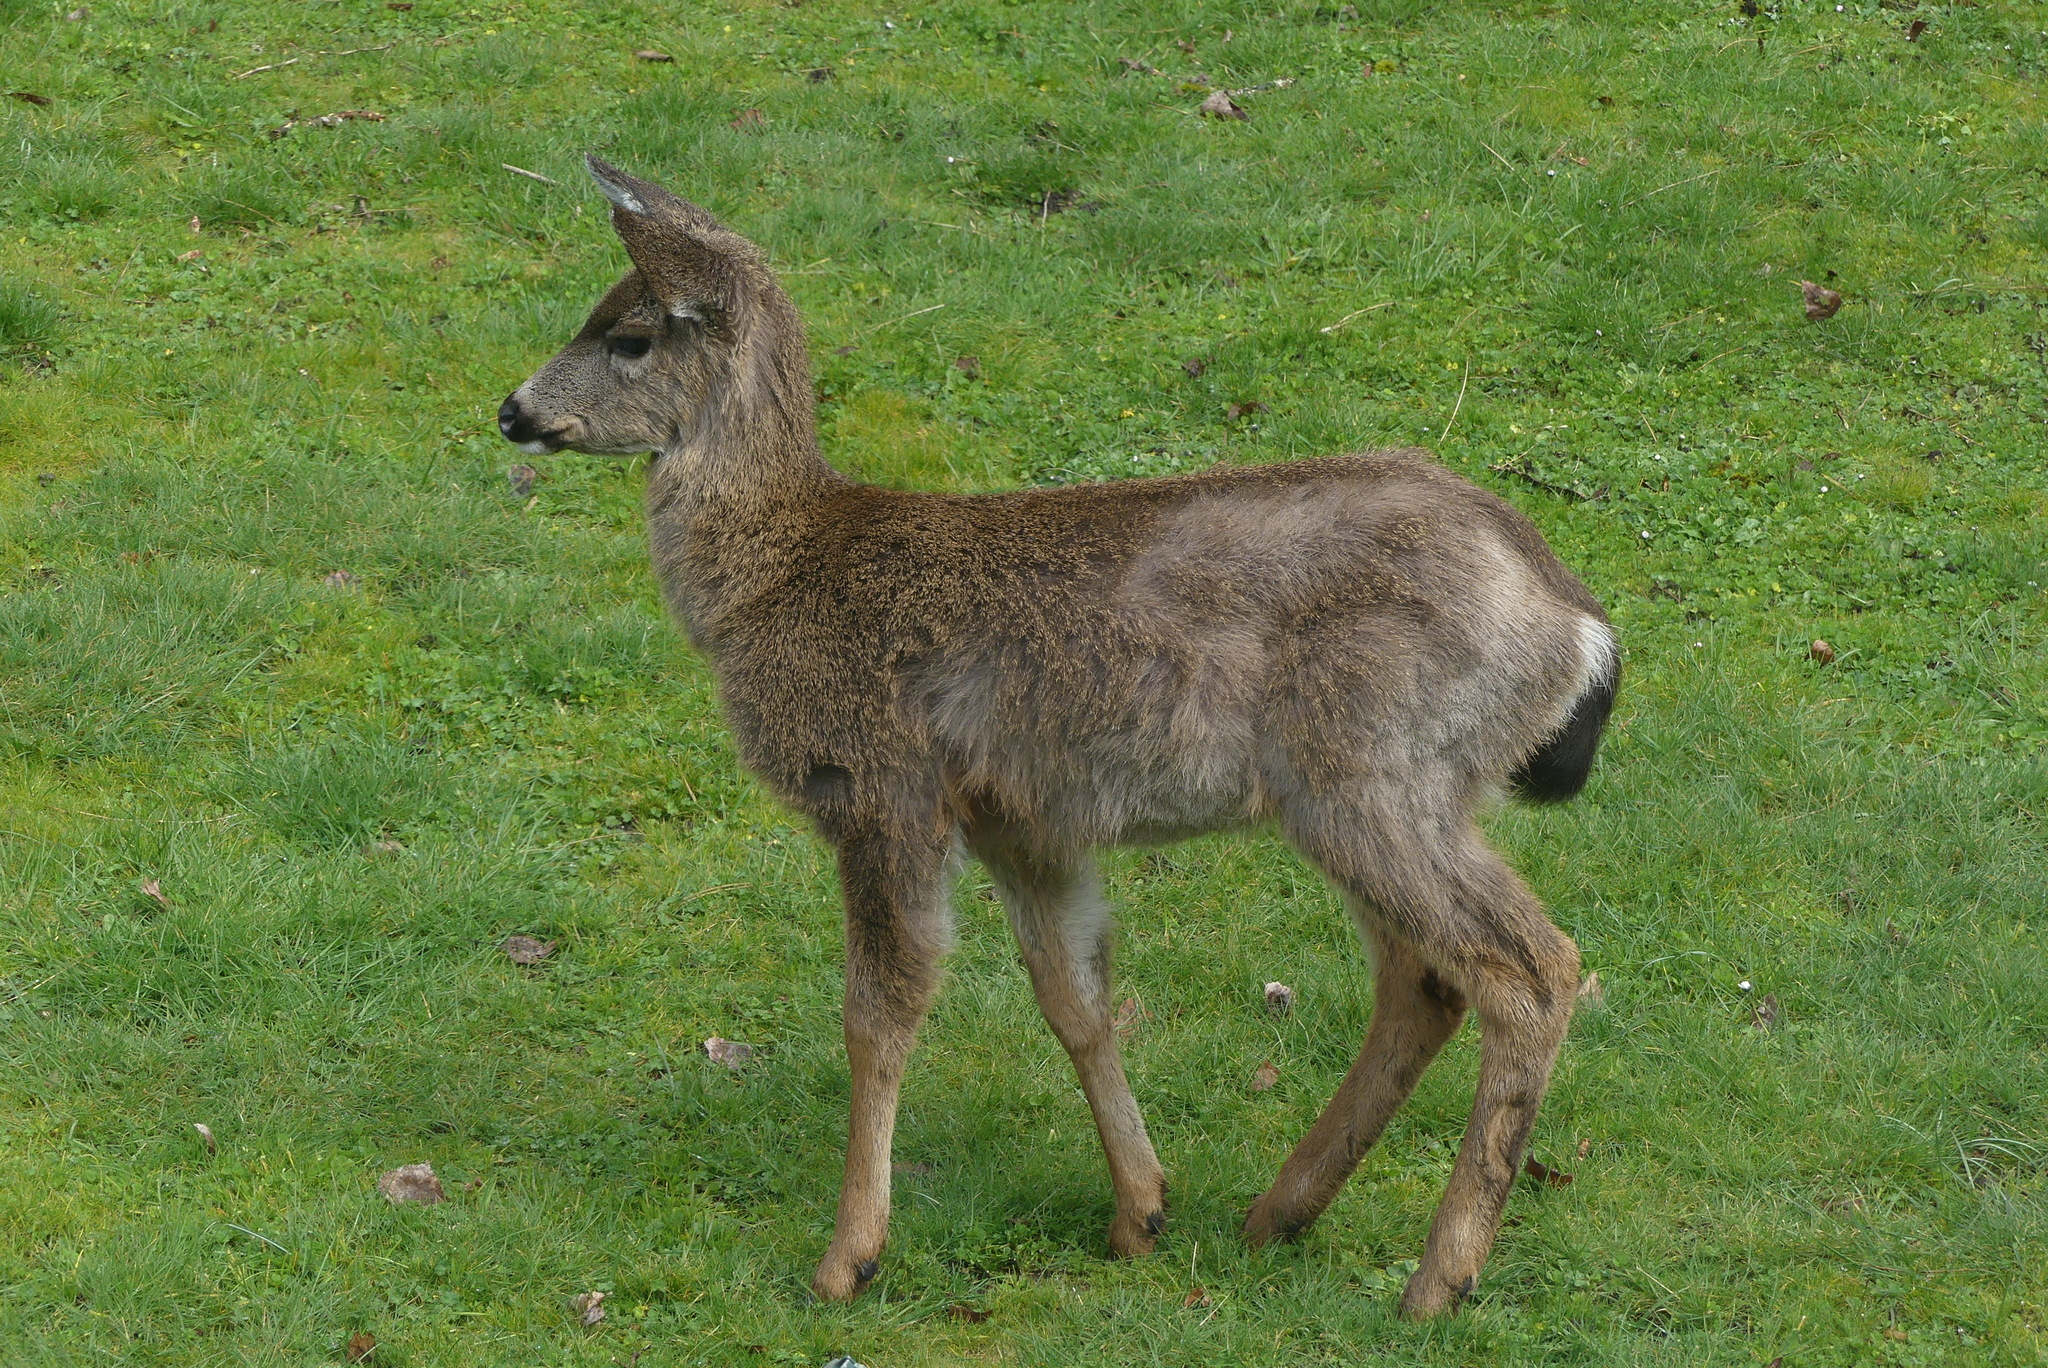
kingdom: Animalia
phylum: Chordata
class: Mammalia
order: Artiodactyla
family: Cervidae
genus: Odocoileus
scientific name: Odocoileus hemionus
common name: Mule deer
